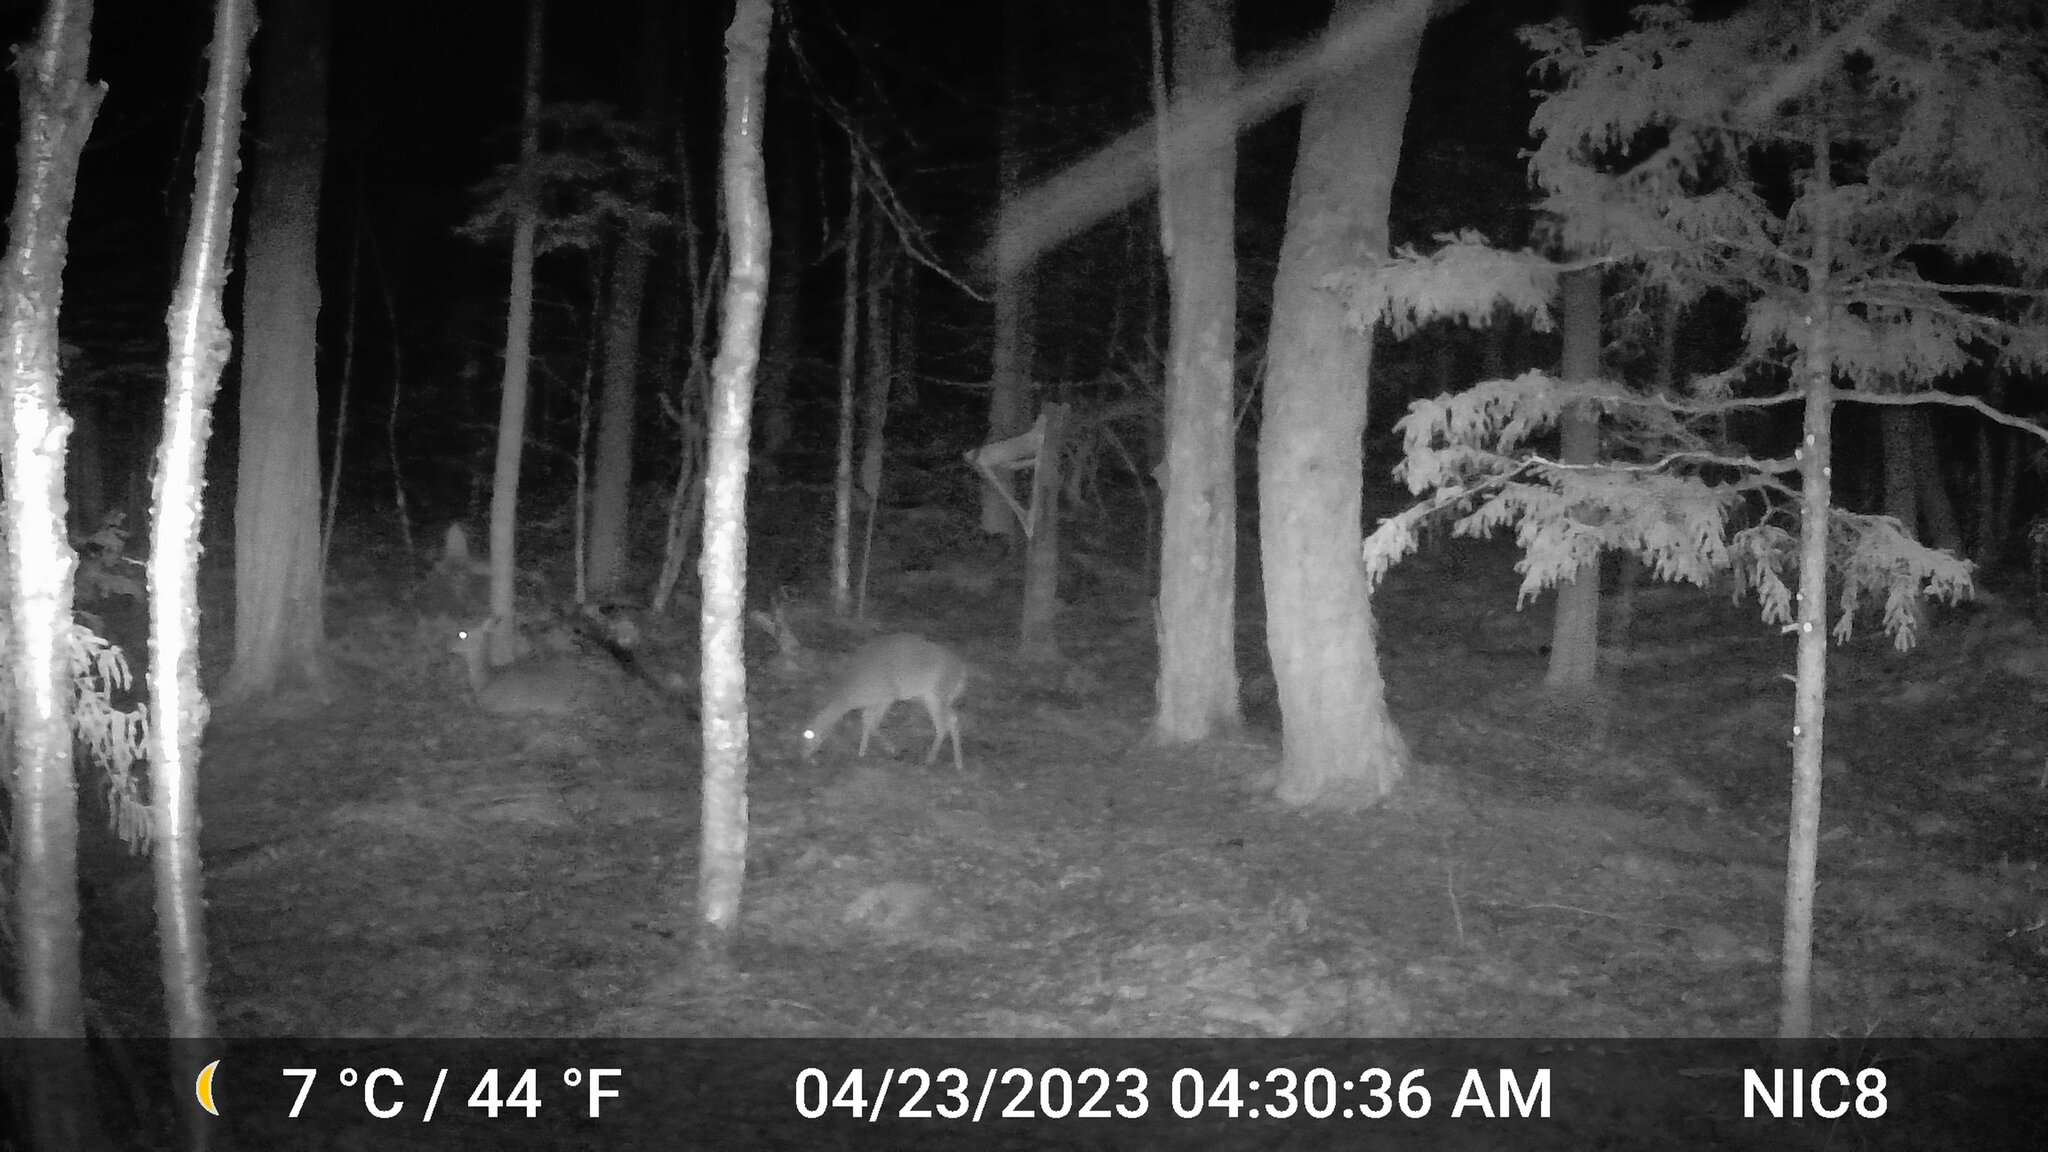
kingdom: Animalia
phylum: Chordata
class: Mammalia
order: Artiodactyla
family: Cervidae
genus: Odocoileus
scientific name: Odocoileus virginianus
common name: White-tailed deer
